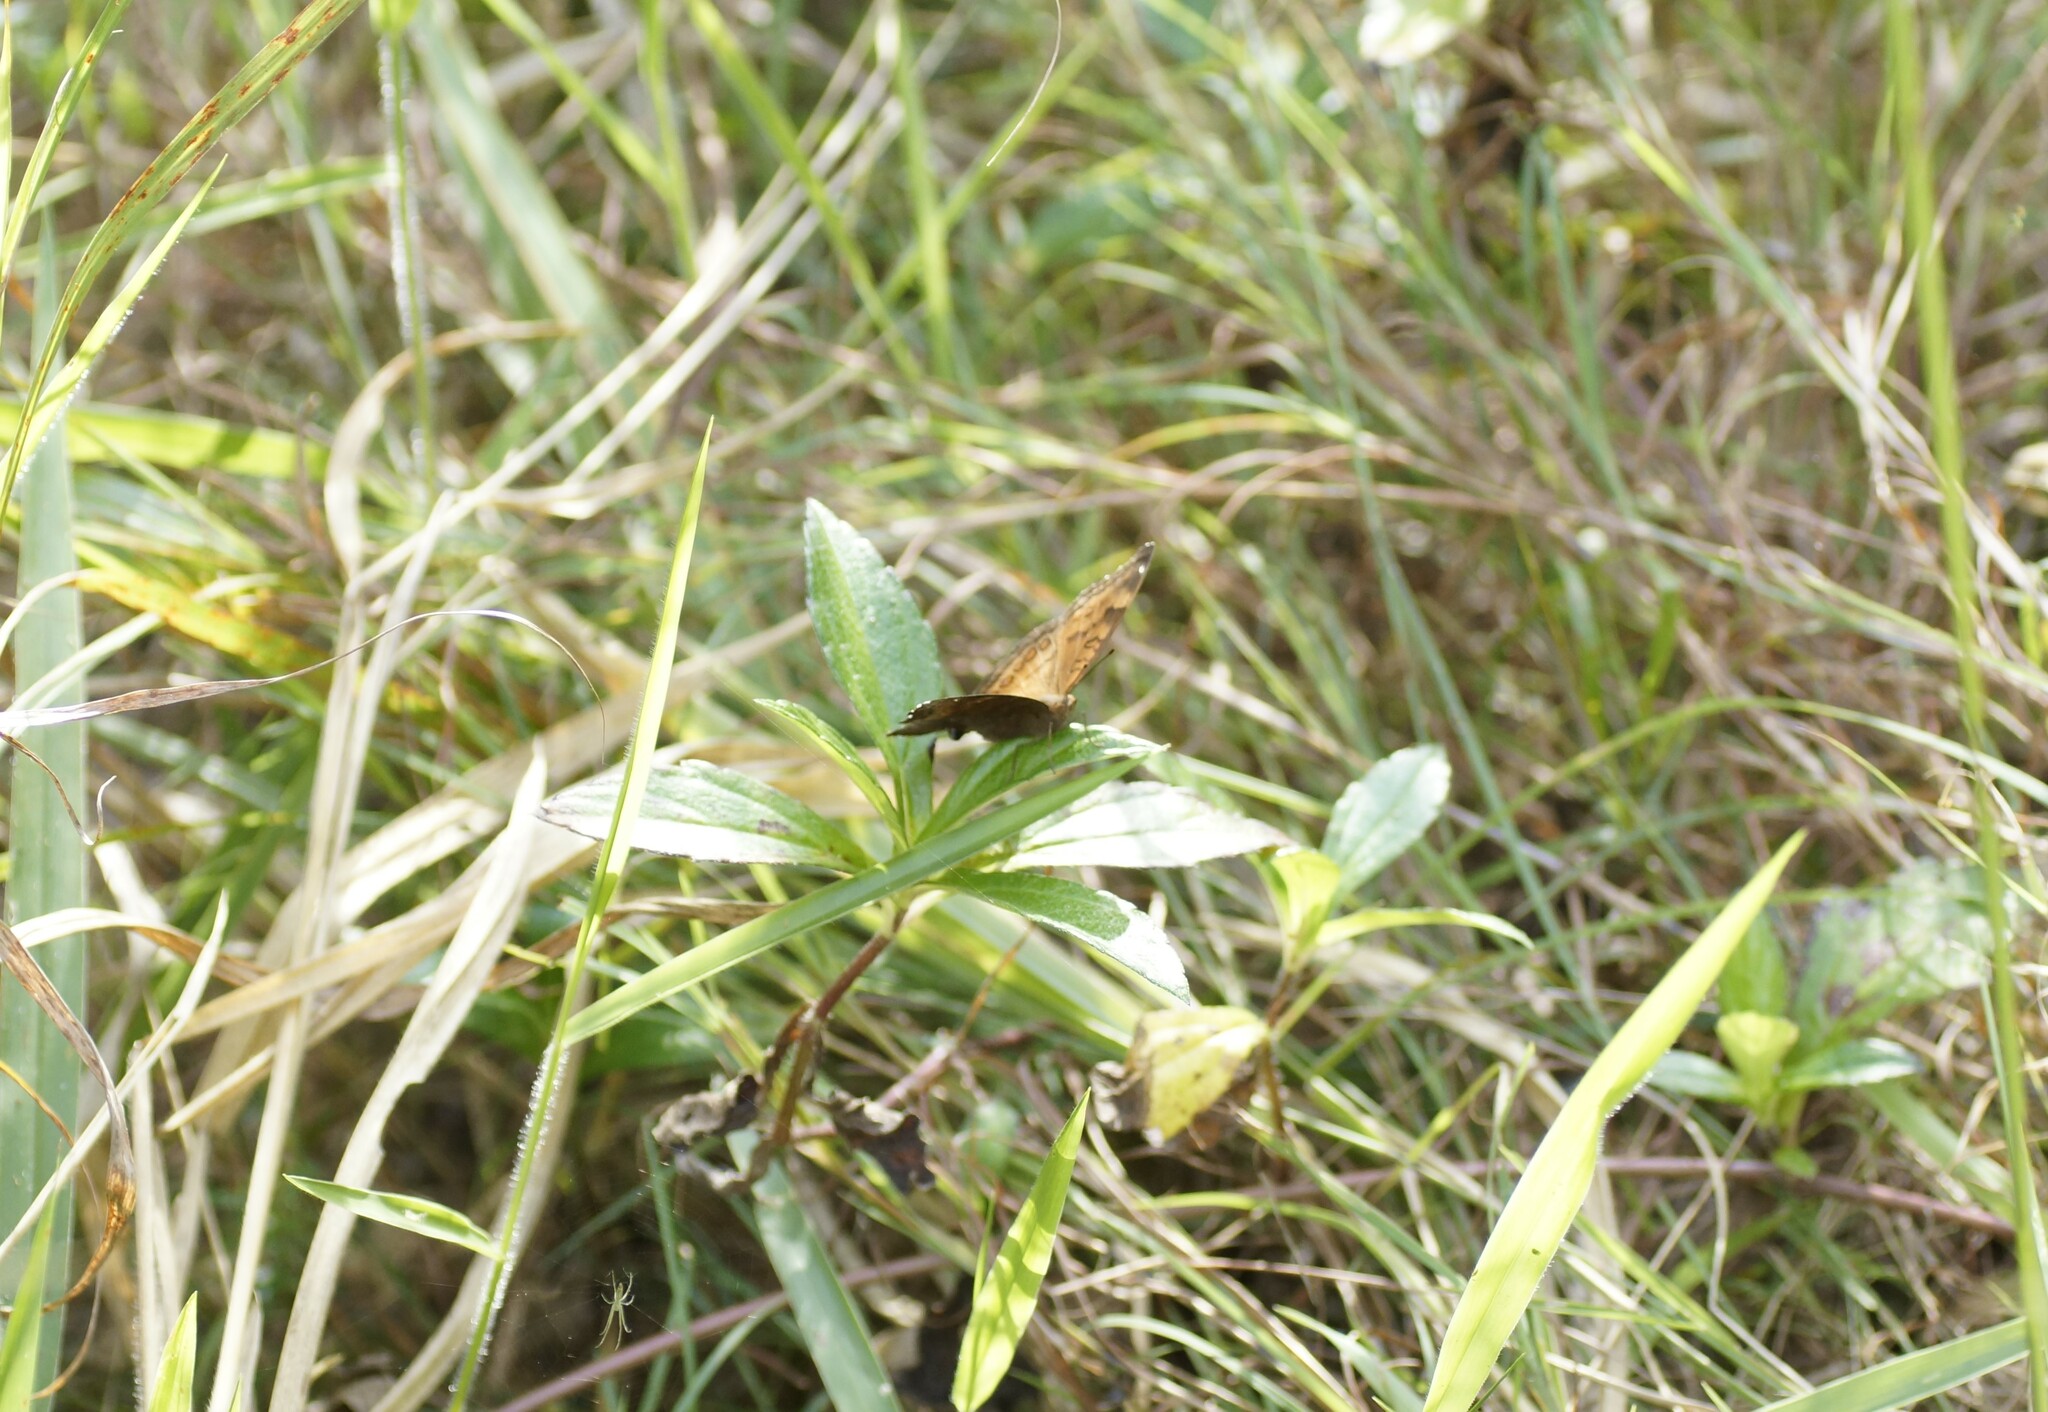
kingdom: Animalia
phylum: Arthropoda
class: Insecta
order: Lepidoptera
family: Nymphalidae
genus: Junonia
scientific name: Junonia hedonia
